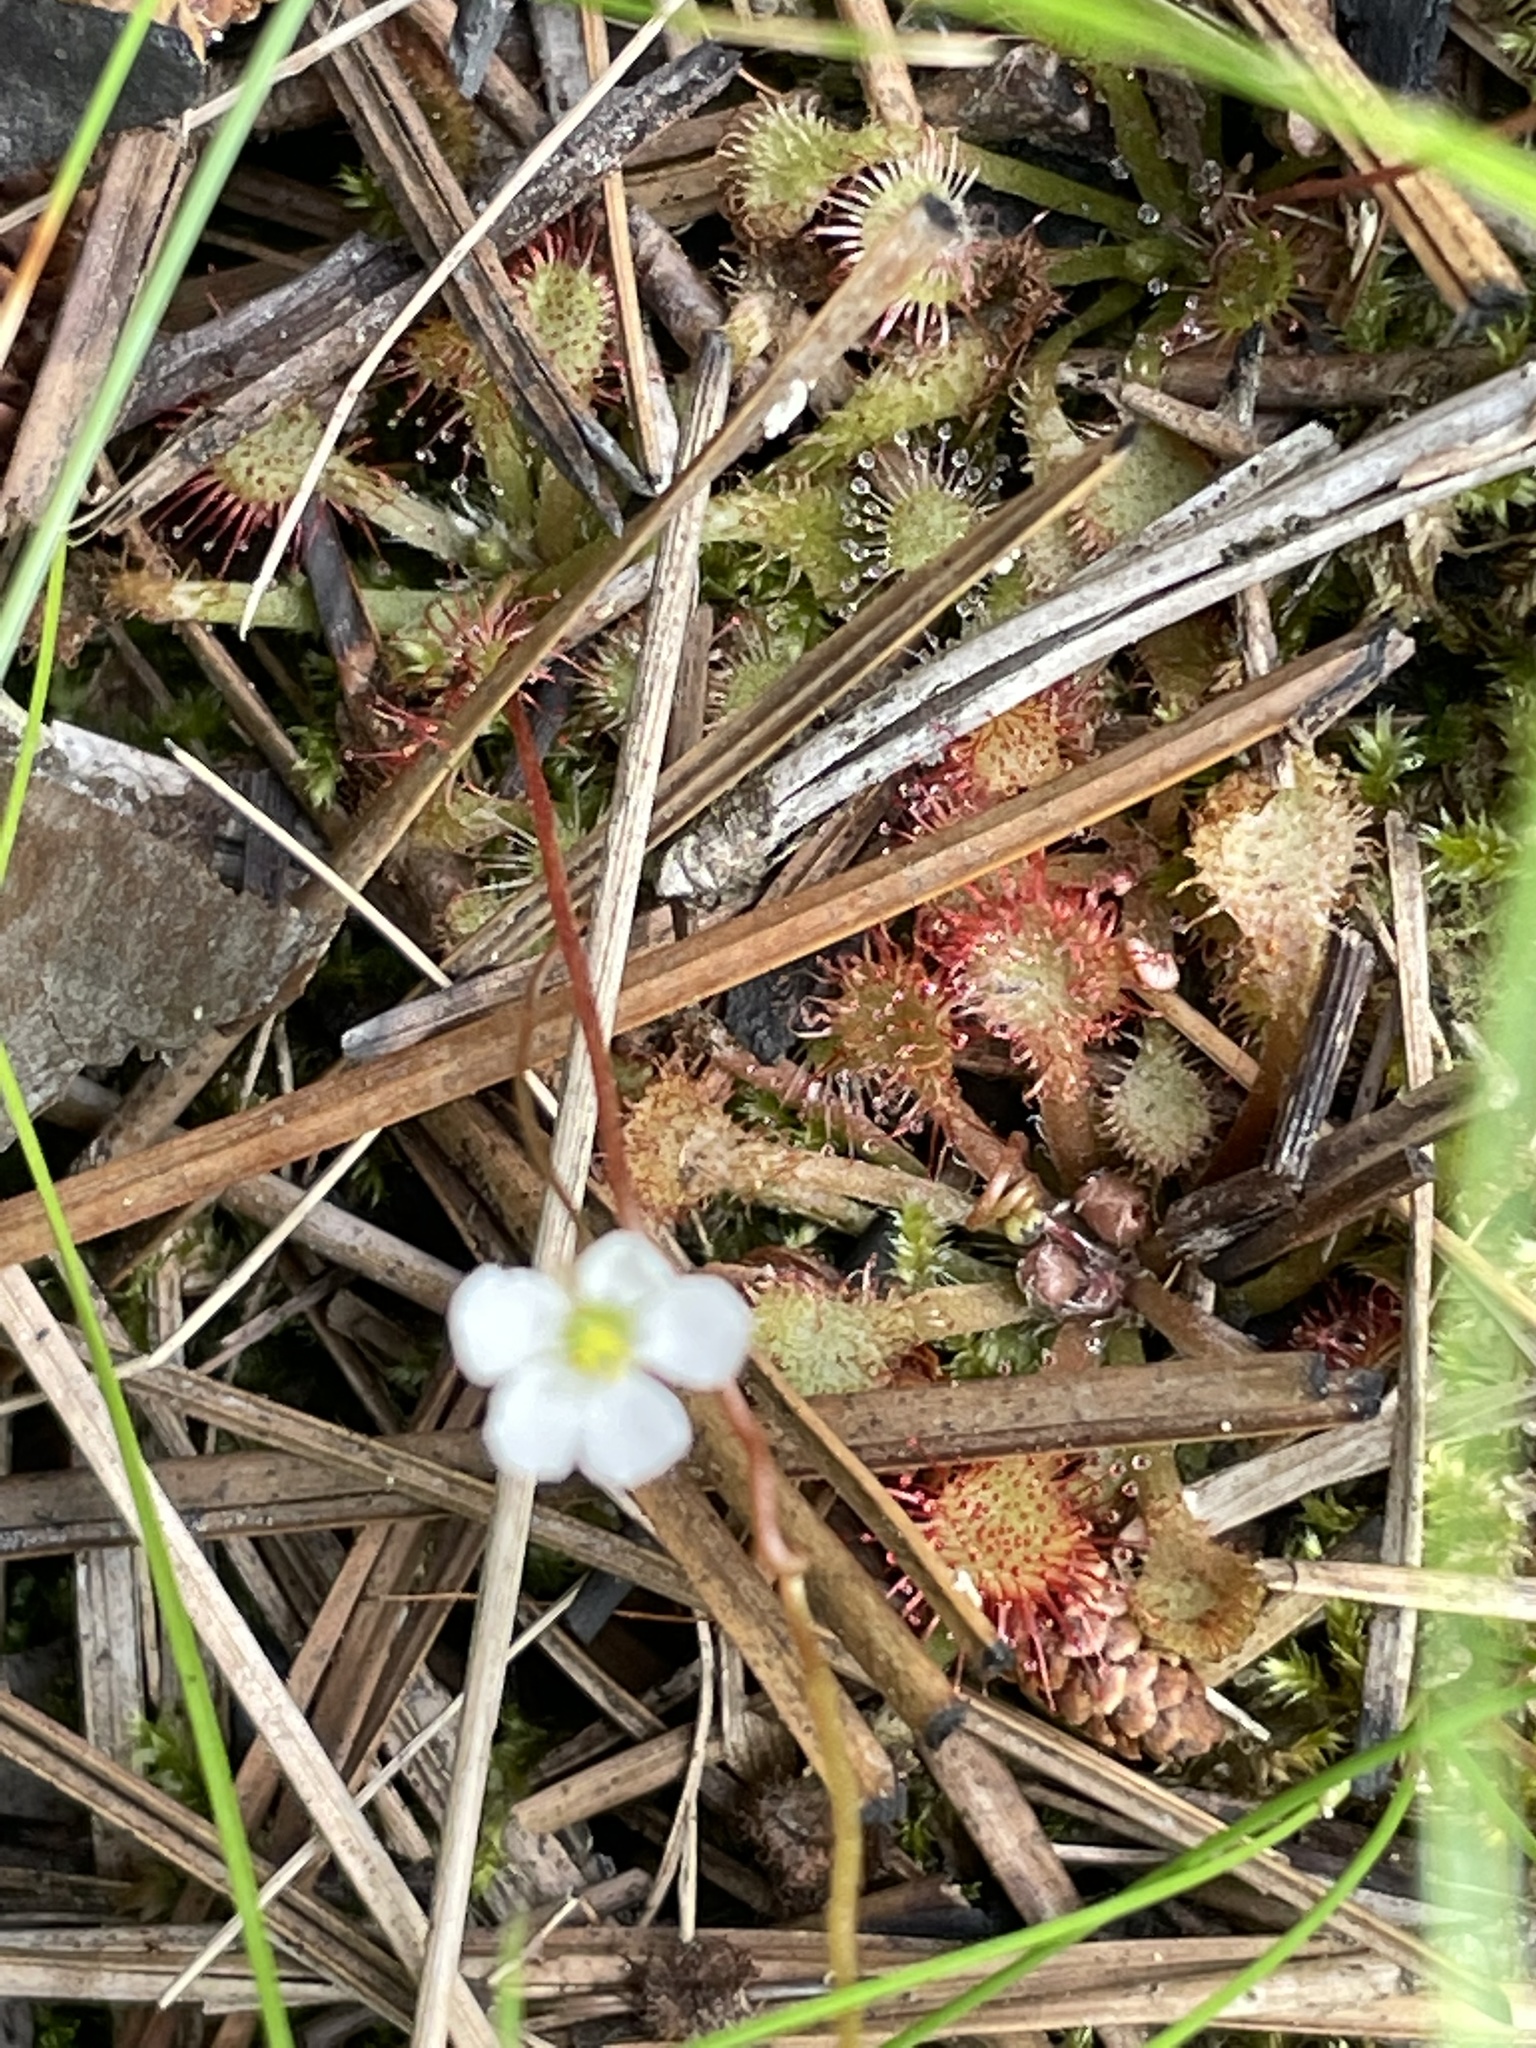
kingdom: Plantae
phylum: Tracheophyta
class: Magnoliopsida
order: Caryophyllales
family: Droseraceae
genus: Drosera
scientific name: Drosera capillaris
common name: Pink sundew
